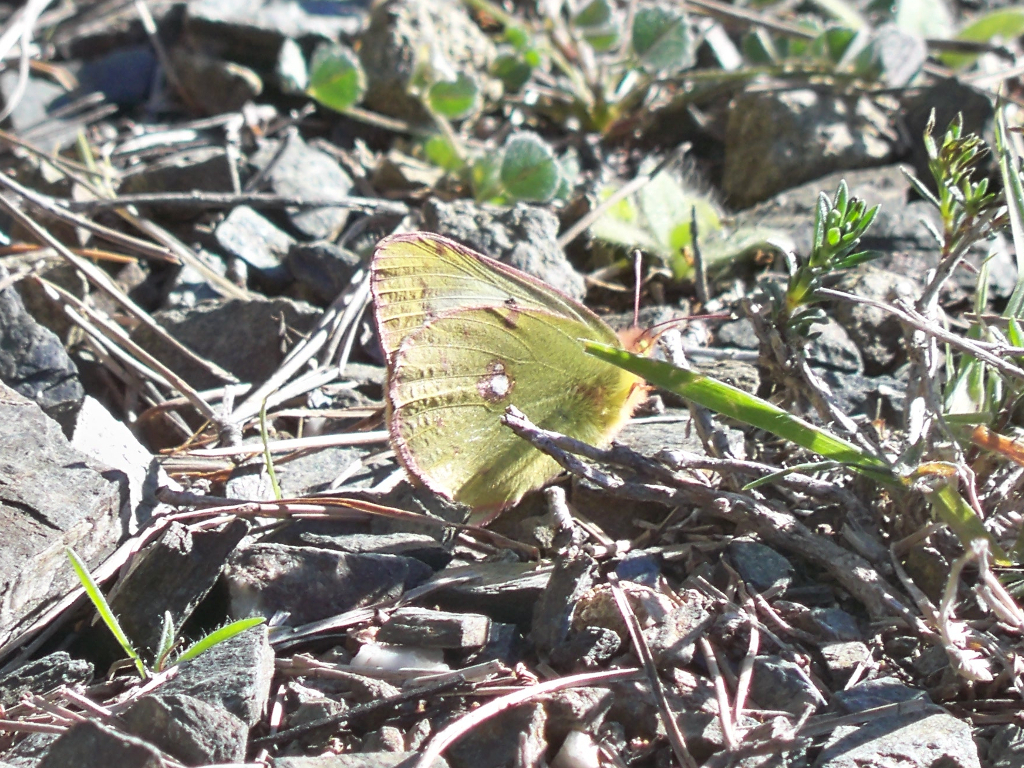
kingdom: Animalia
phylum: Arthropoda
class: Insecta
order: Lepidoptera
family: Pieridae
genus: Colias
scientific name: Colias croceus
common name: Clouded yellow
